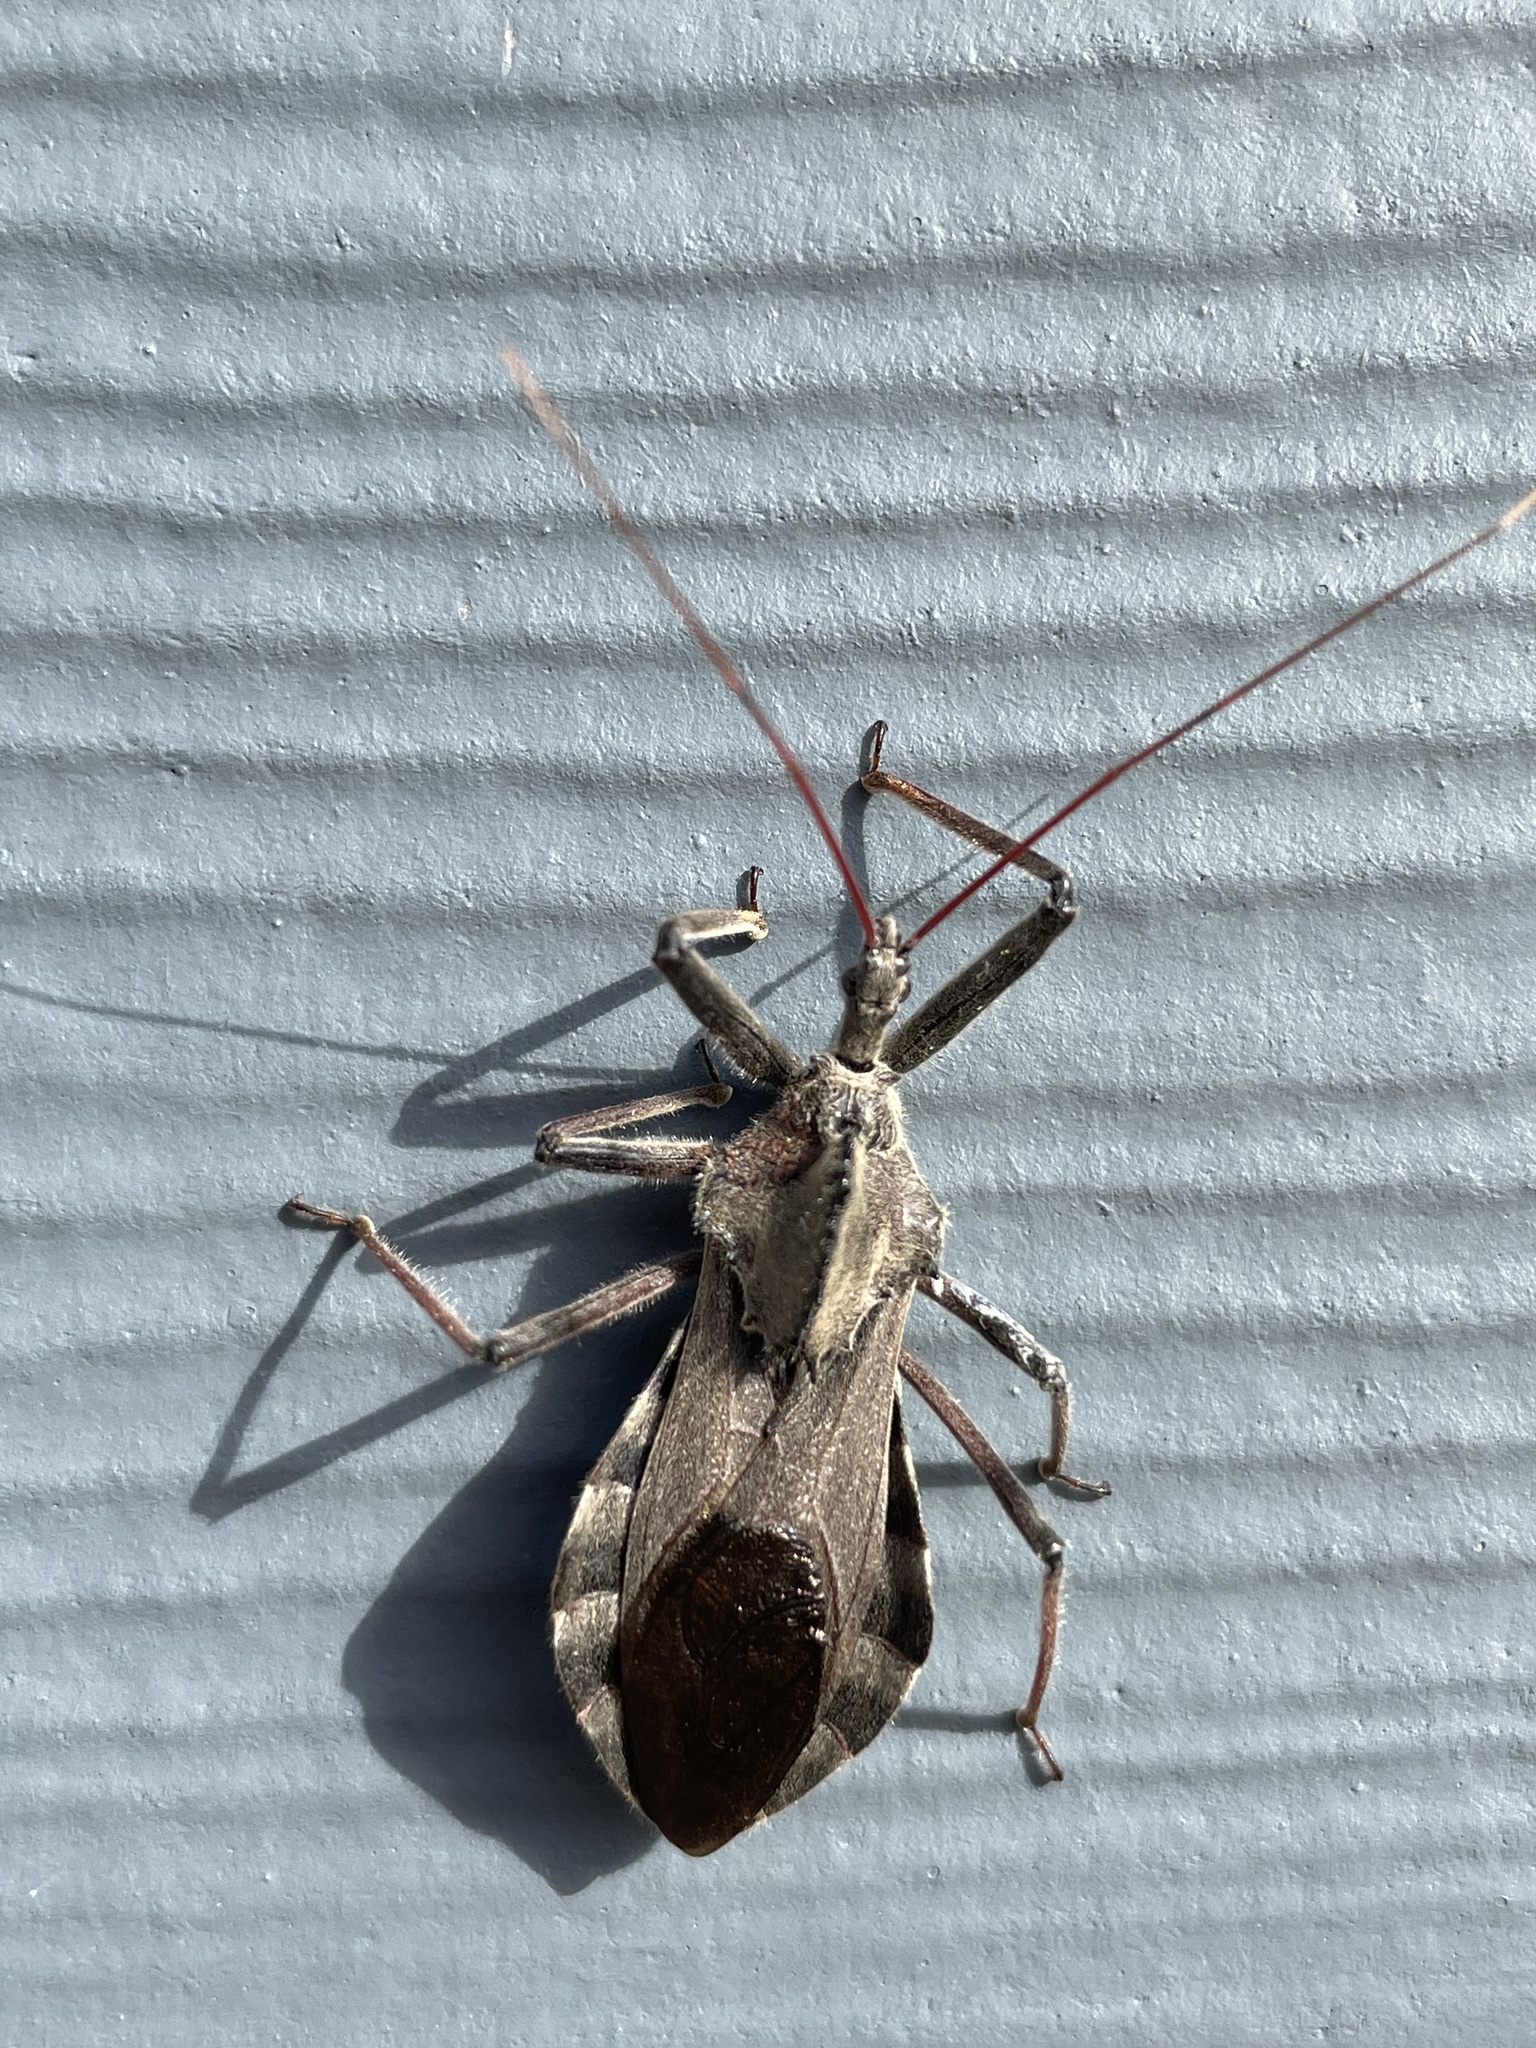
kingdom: Animalia
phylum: Arthropoda
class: Insecta
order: Hemiptera
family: Reduviidae
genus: Arilus
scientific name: Arilus cristatus
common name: North american wheel bug
